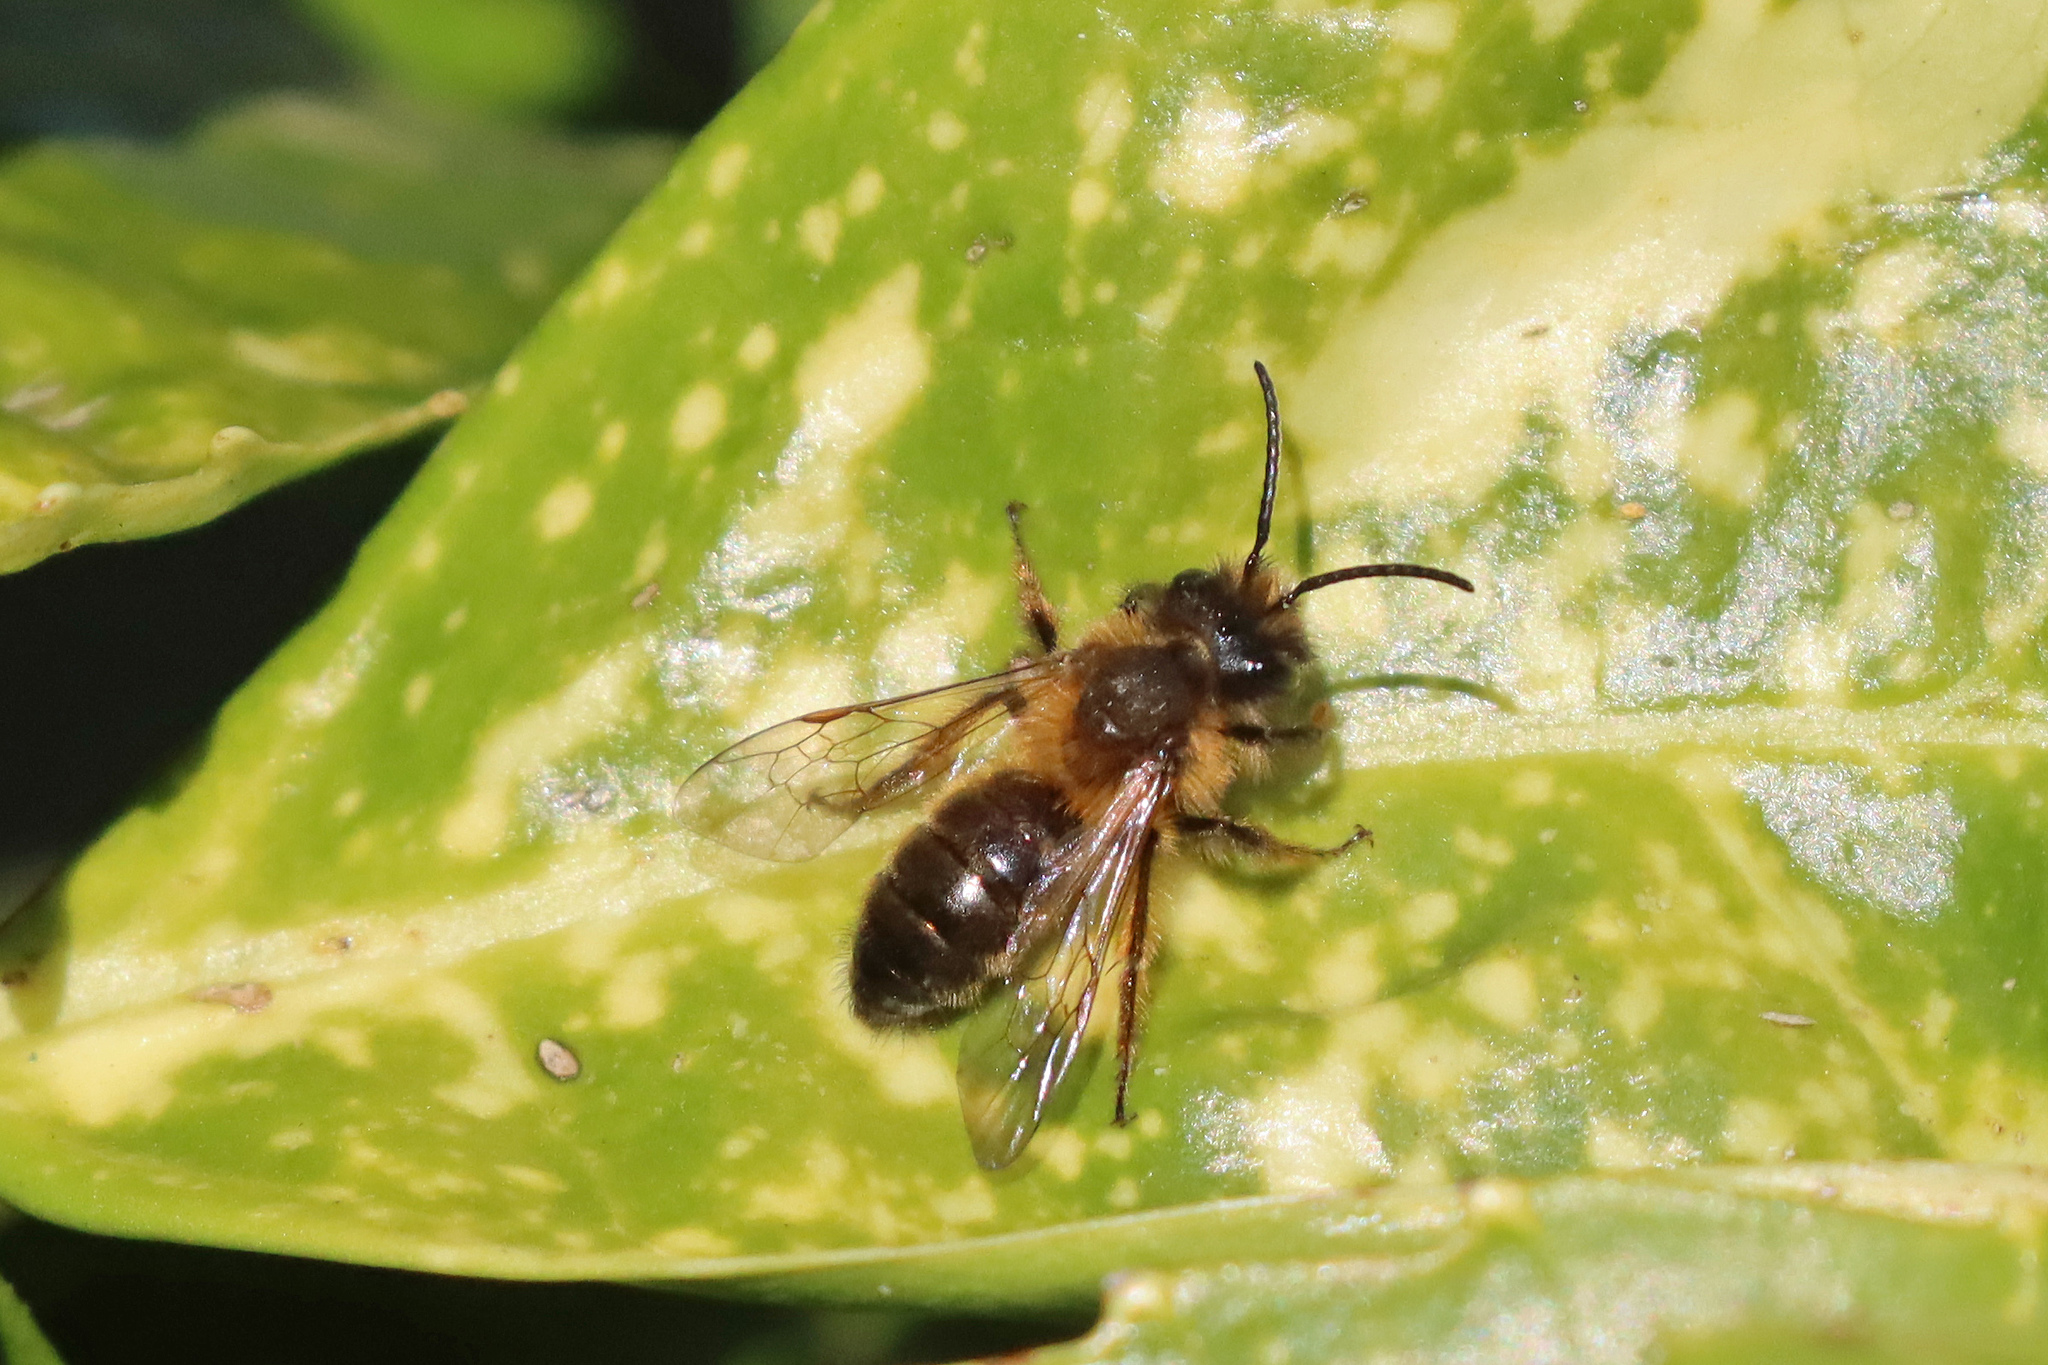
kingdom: Animalia
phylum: Arthropoda
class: Insecta
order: Hymenoptera
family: Andrenidae
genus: Andrena
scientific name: Andrena nigroaenea
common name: Buffish mining bee
